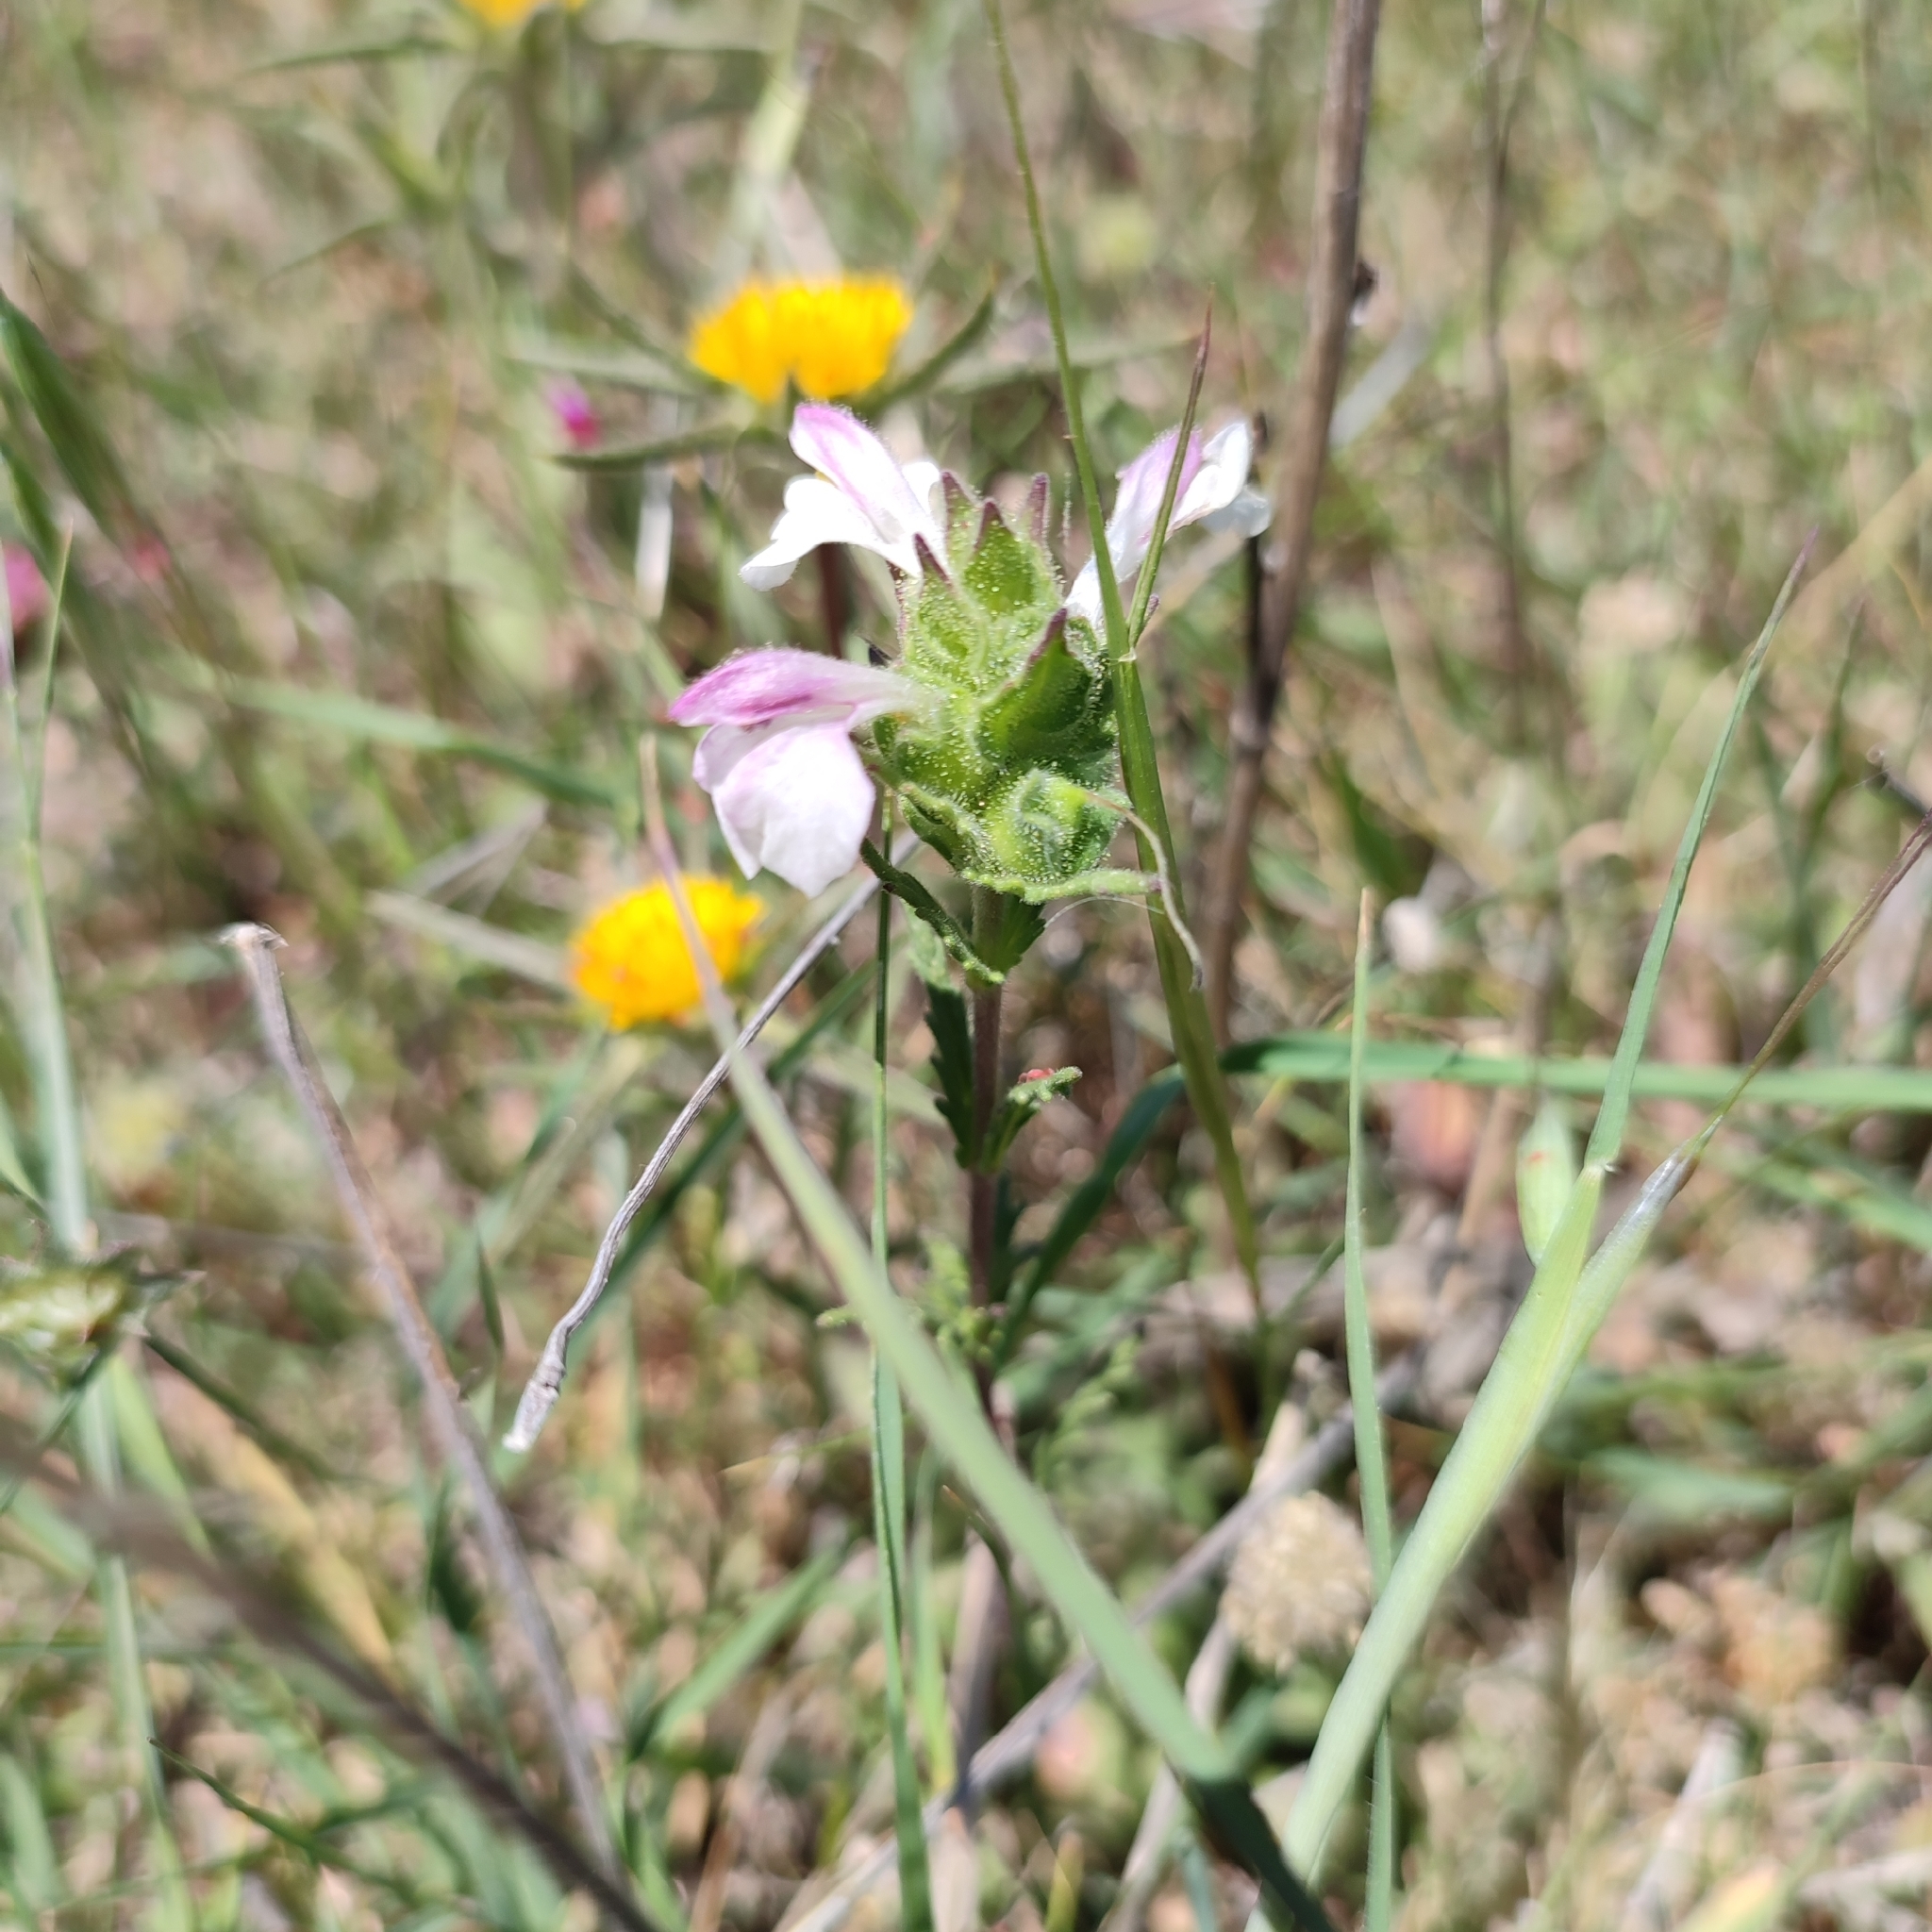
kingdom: Plantae
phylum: Tracheophyta
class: Magnoliopsida
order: Lamiales
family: Orobanchaceae
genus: Bellardia
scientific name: Bellardia trixago
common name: Mediterranean lineseed
